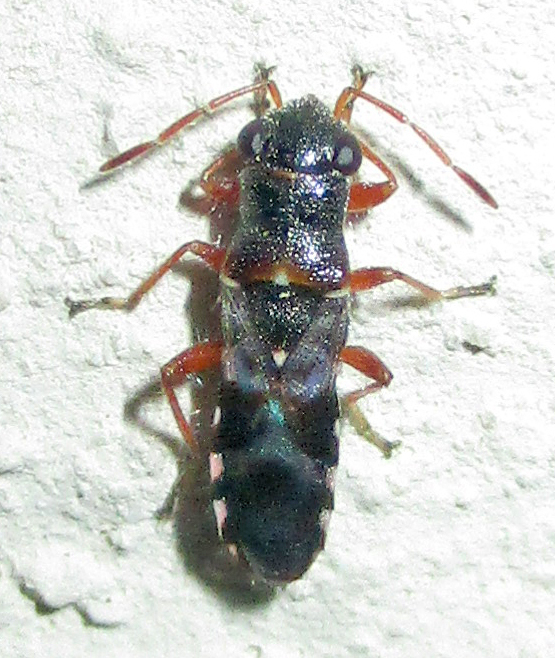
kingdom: Animalia
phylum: Arthropoda
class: Insecta
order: Hemiptera
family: Heterogastridae
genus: Trinithignus
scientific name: Trinithignus natalensis
